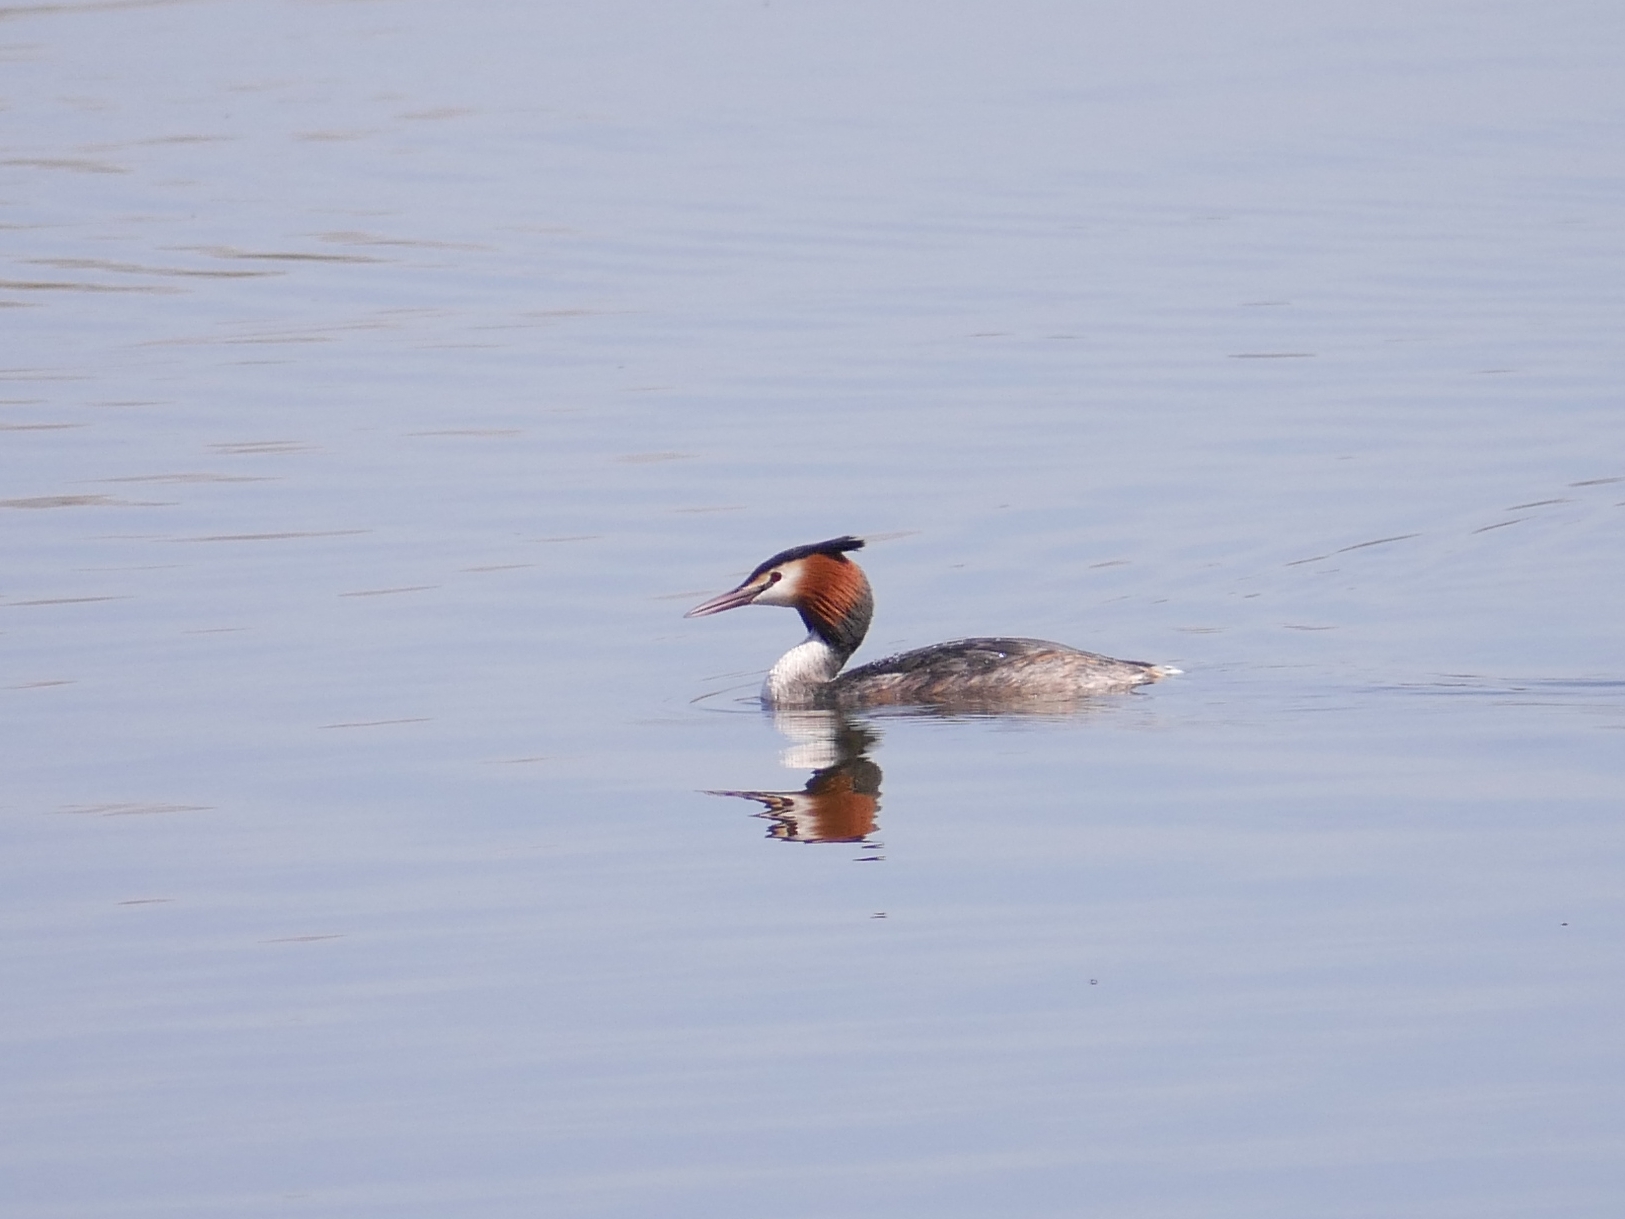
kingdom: Animalia
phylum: Chordata
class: Aves
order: Podicipediformes
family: Podicipedidae
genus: Podiceps
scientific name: Podiceps cristatus
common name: Great crested grebe
